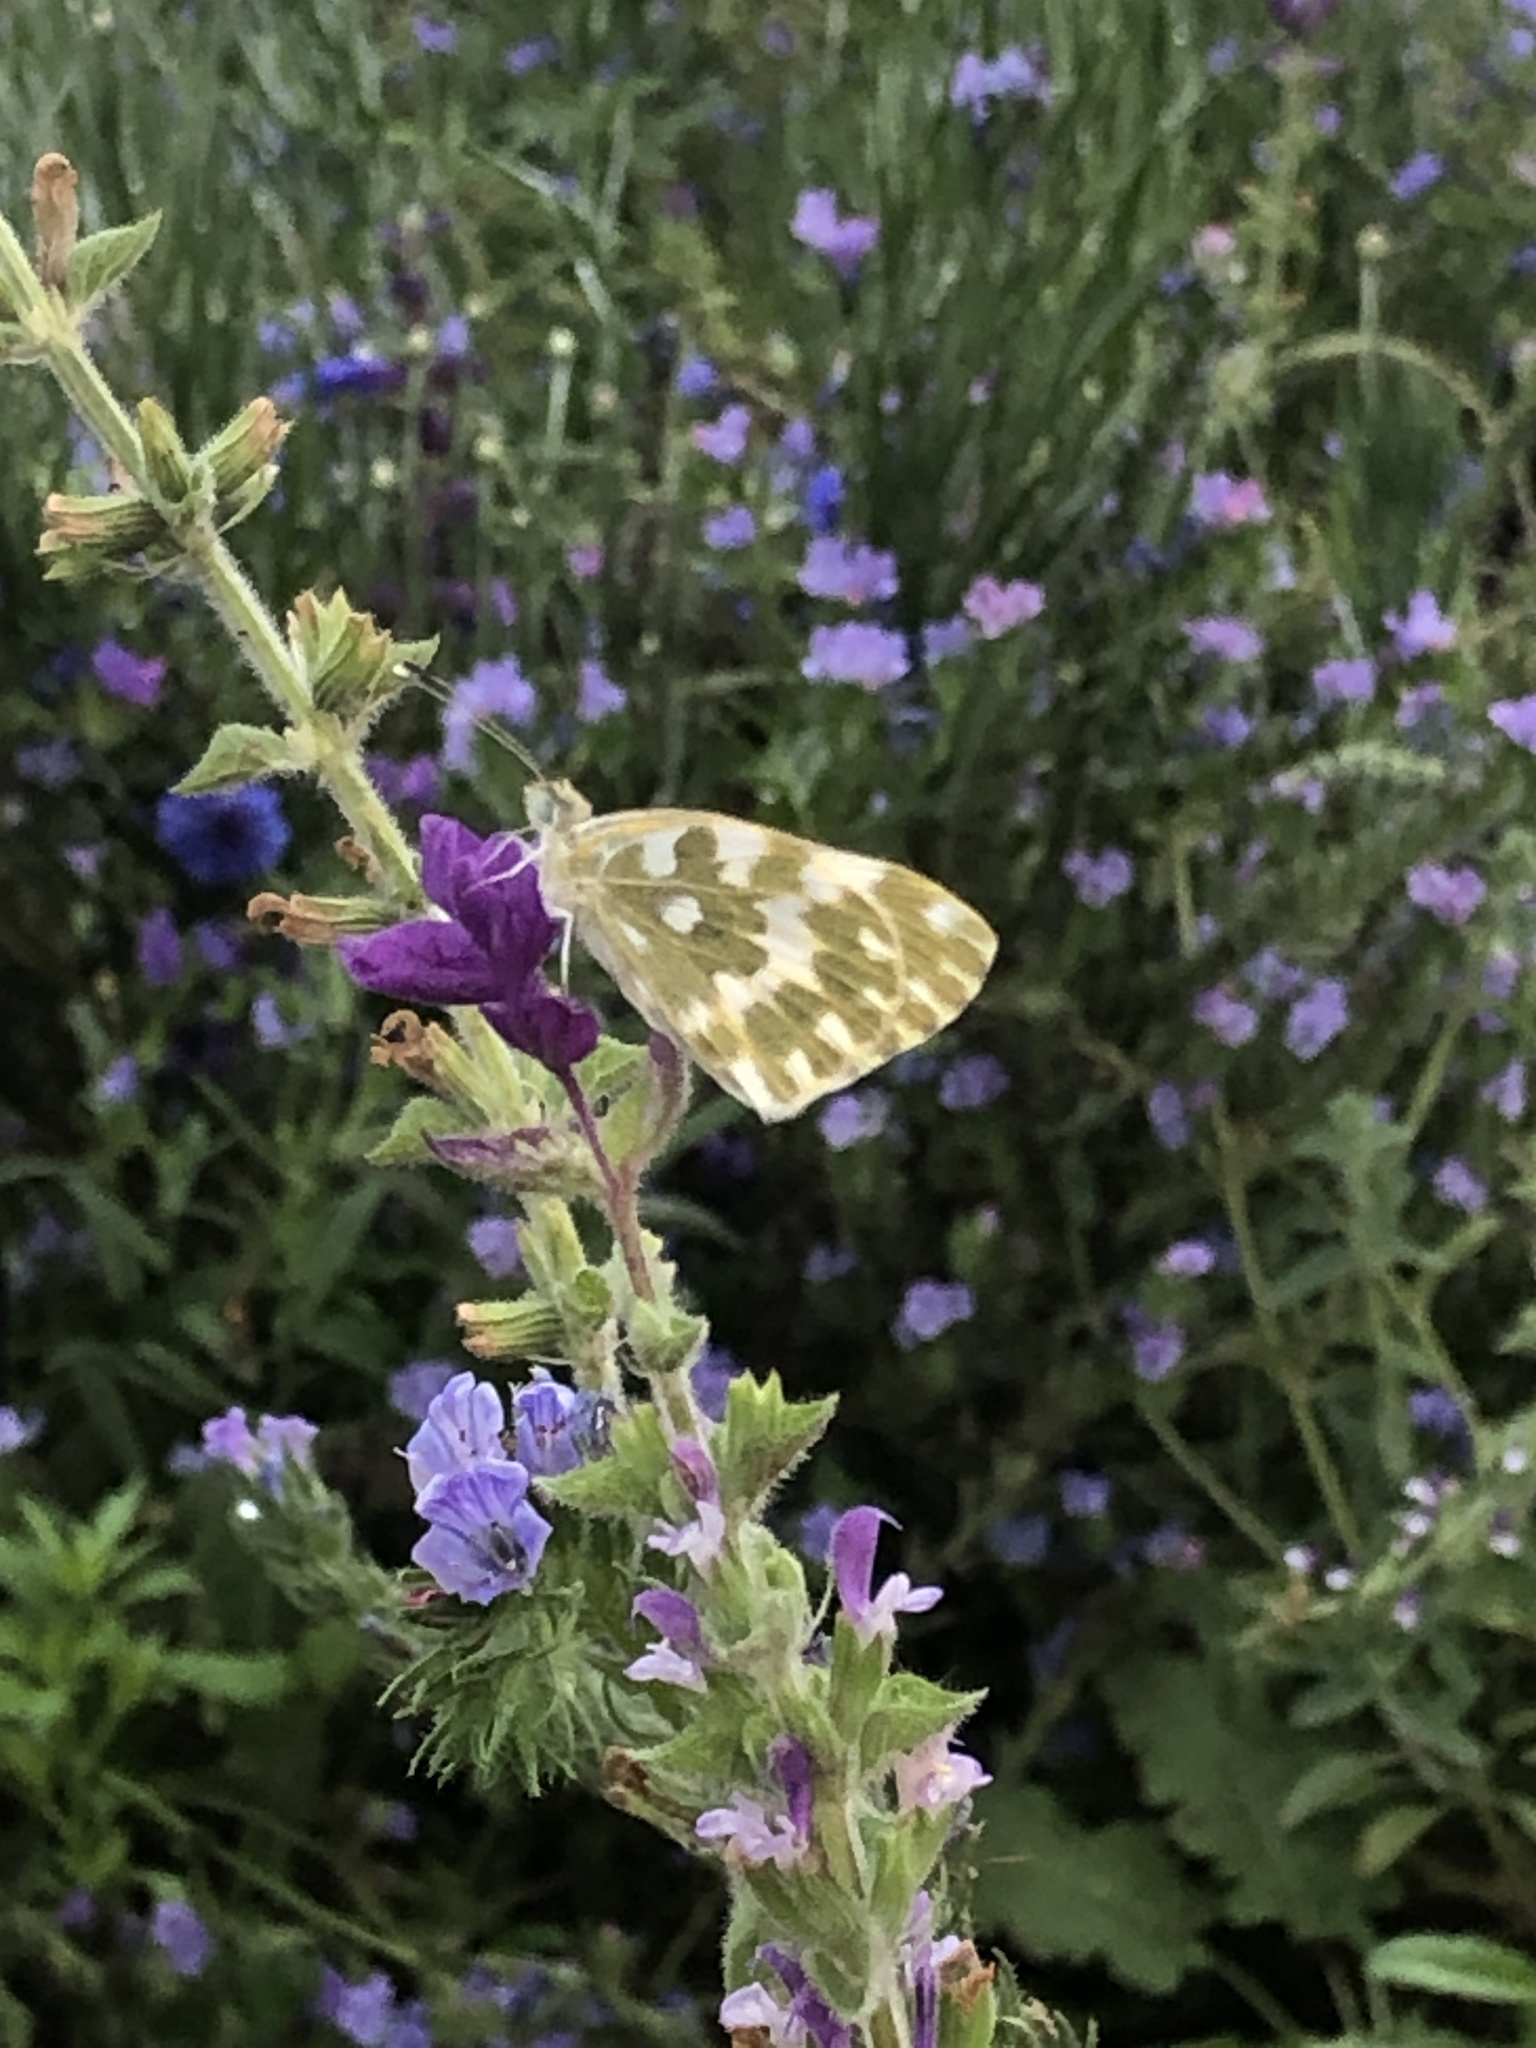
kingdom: Animalia
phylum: Arthropoda
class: Insecta
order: Lepidoptera
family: Pieridae
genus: Pontia
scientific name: Pontia edusa
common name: Eastern bath white
